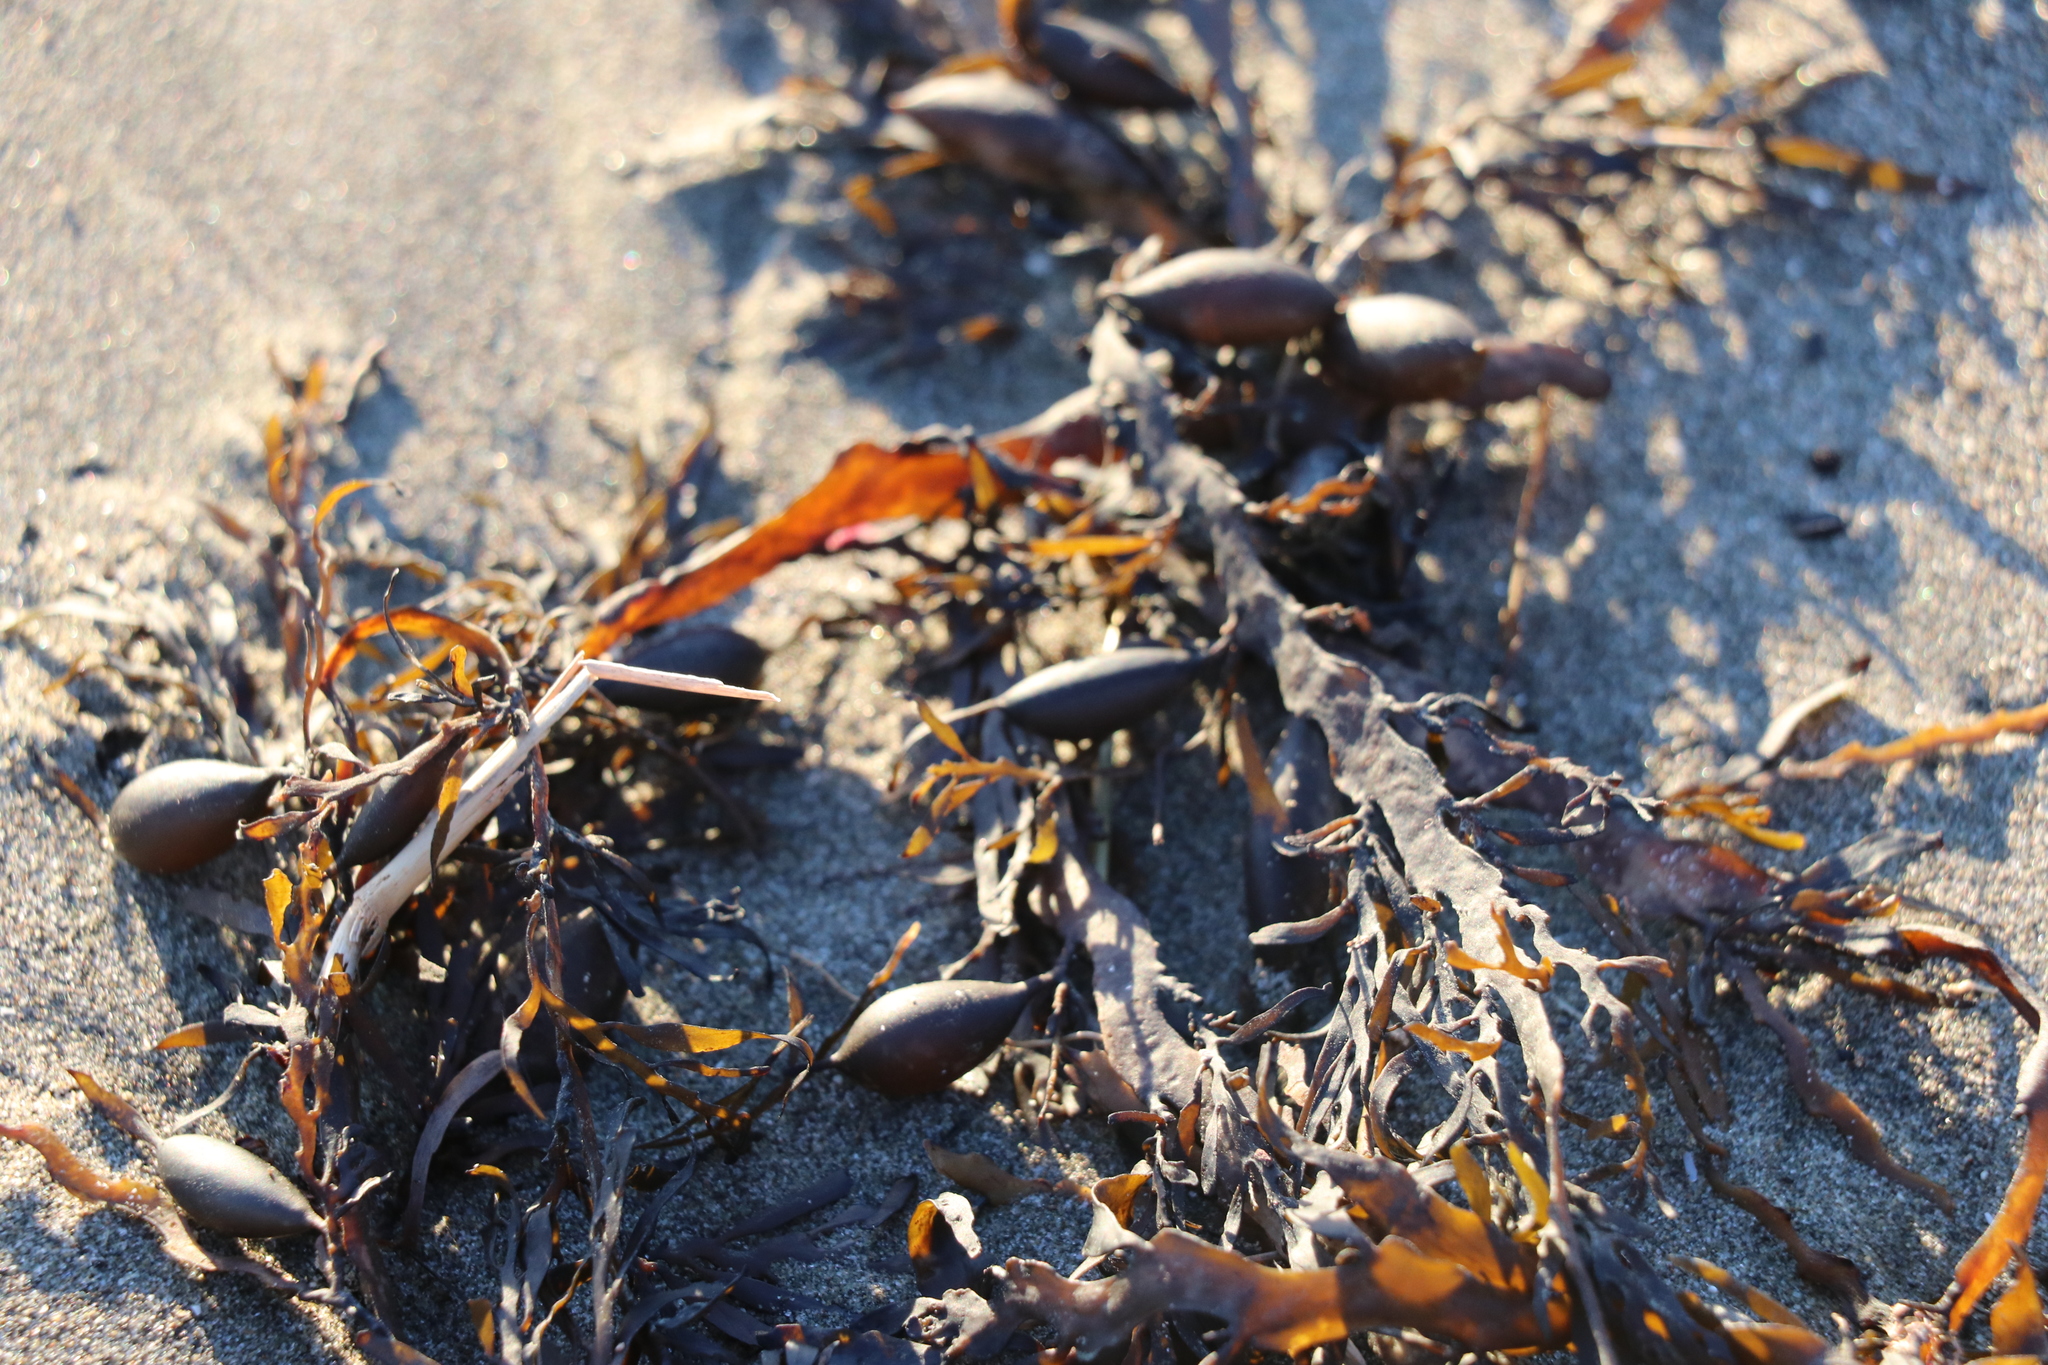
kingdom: Chromista
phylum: Ochrophyta
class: Phaeophyceae
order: Fucales
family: Sargassaceae
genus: Carpophyllum
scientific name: Carpophyllum maschalocarpum
